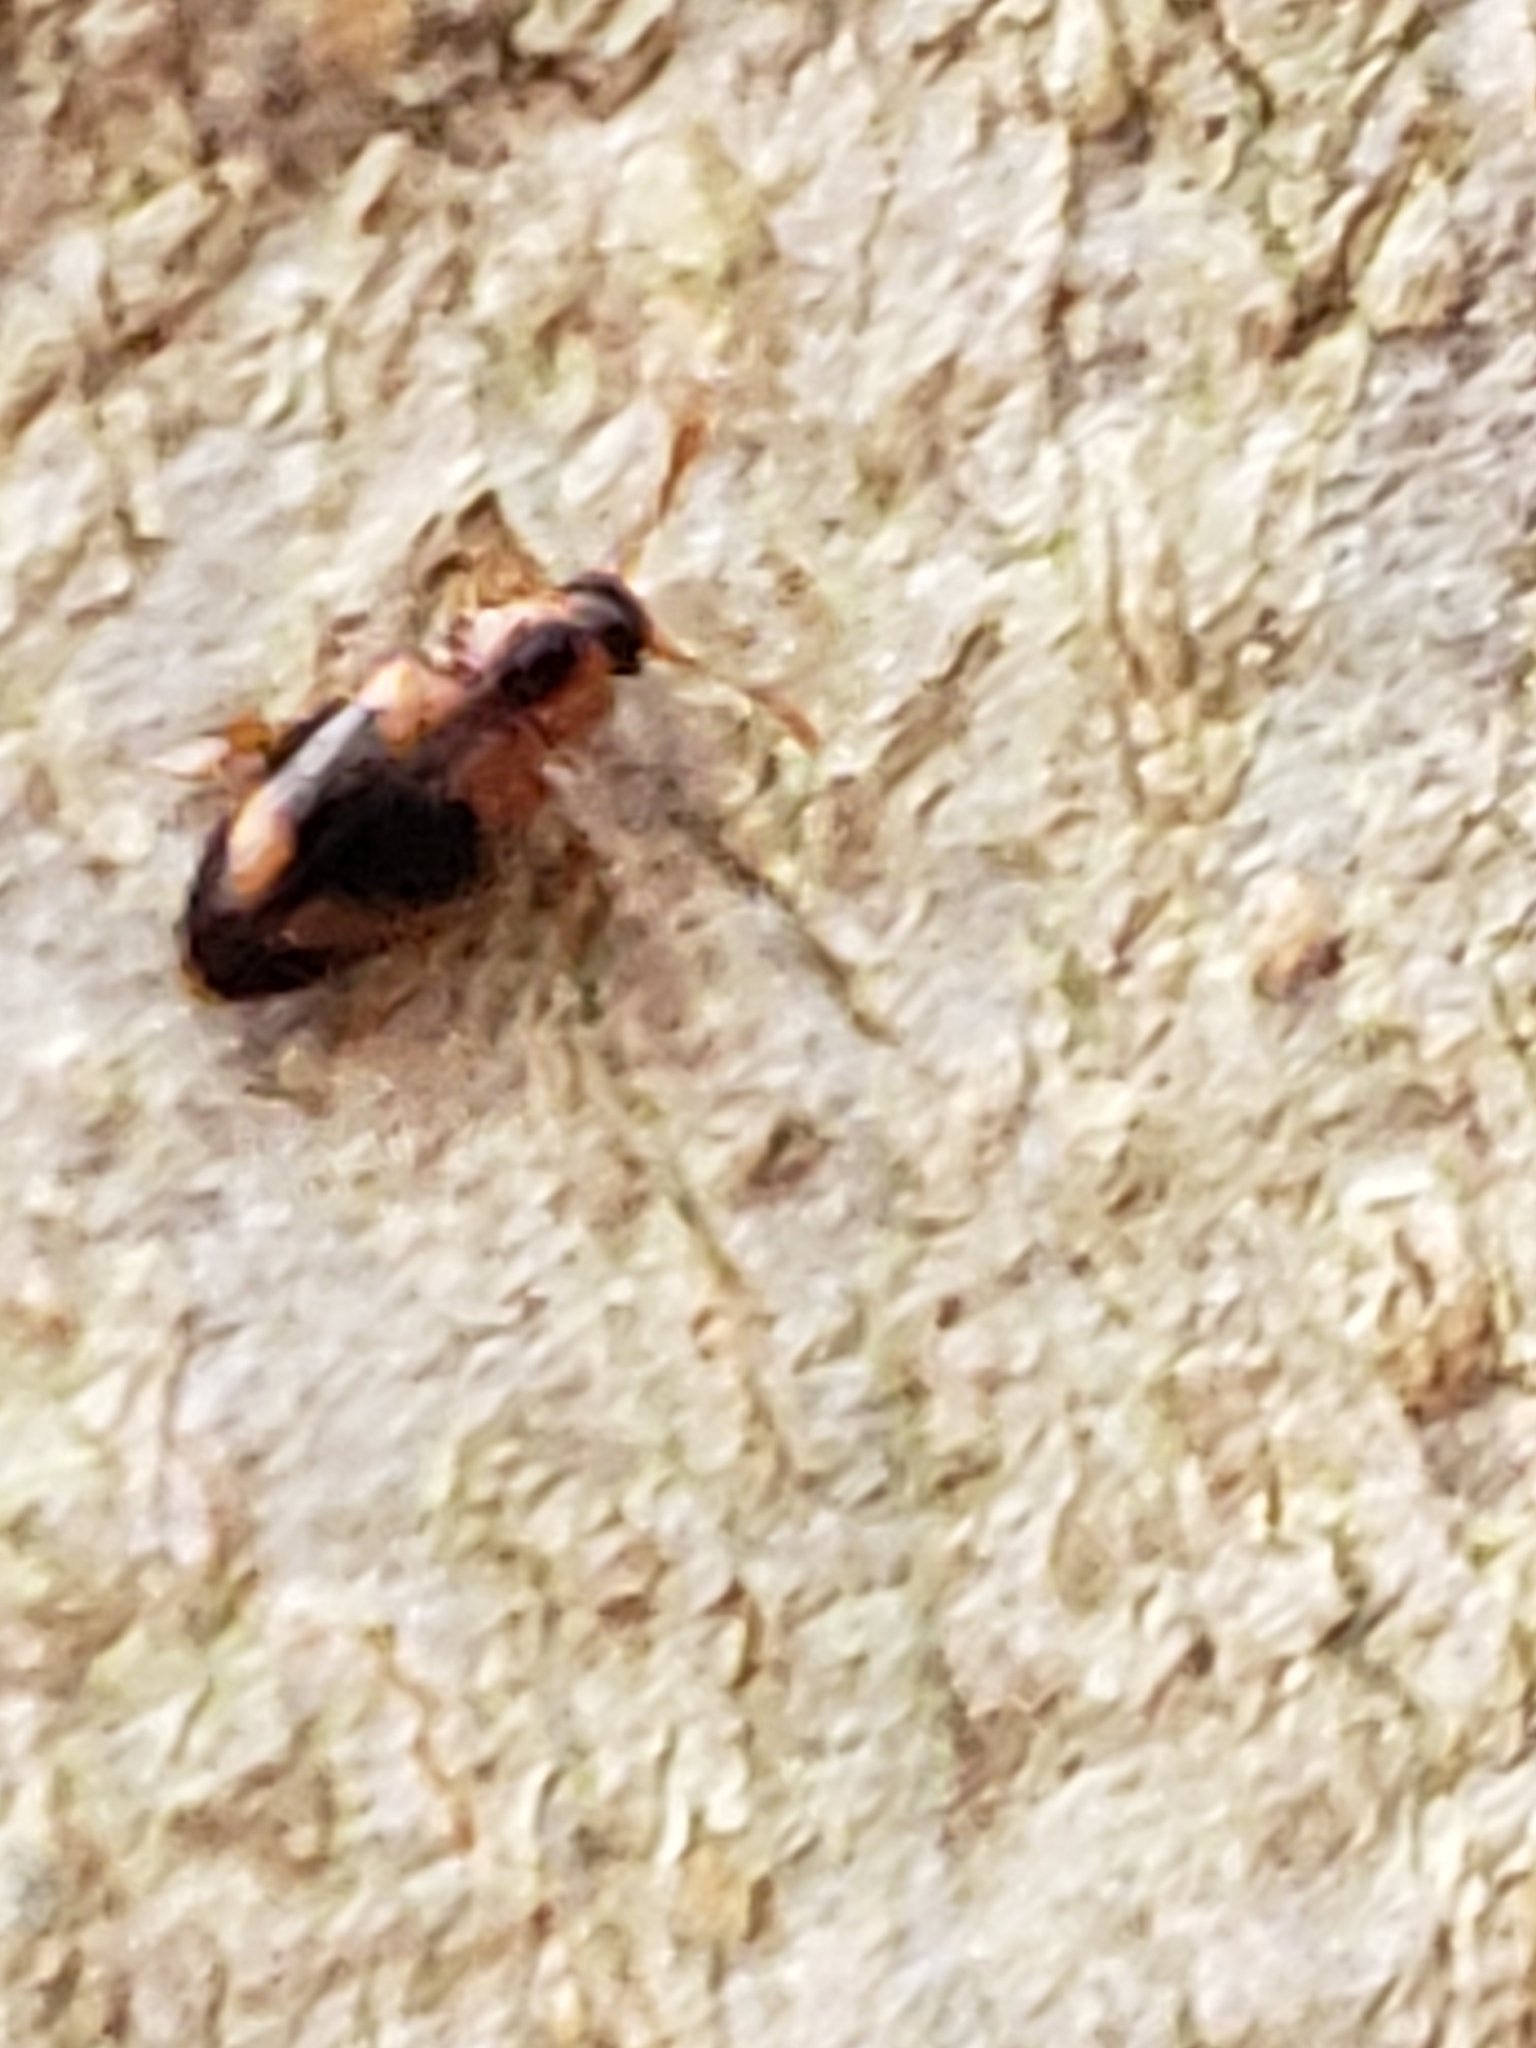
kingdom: Animalia
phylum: Arthropoda
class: Insecta
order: Coleoptera
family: Endomychidae
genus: Phymaphora
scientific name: Phymaphora pulchella
